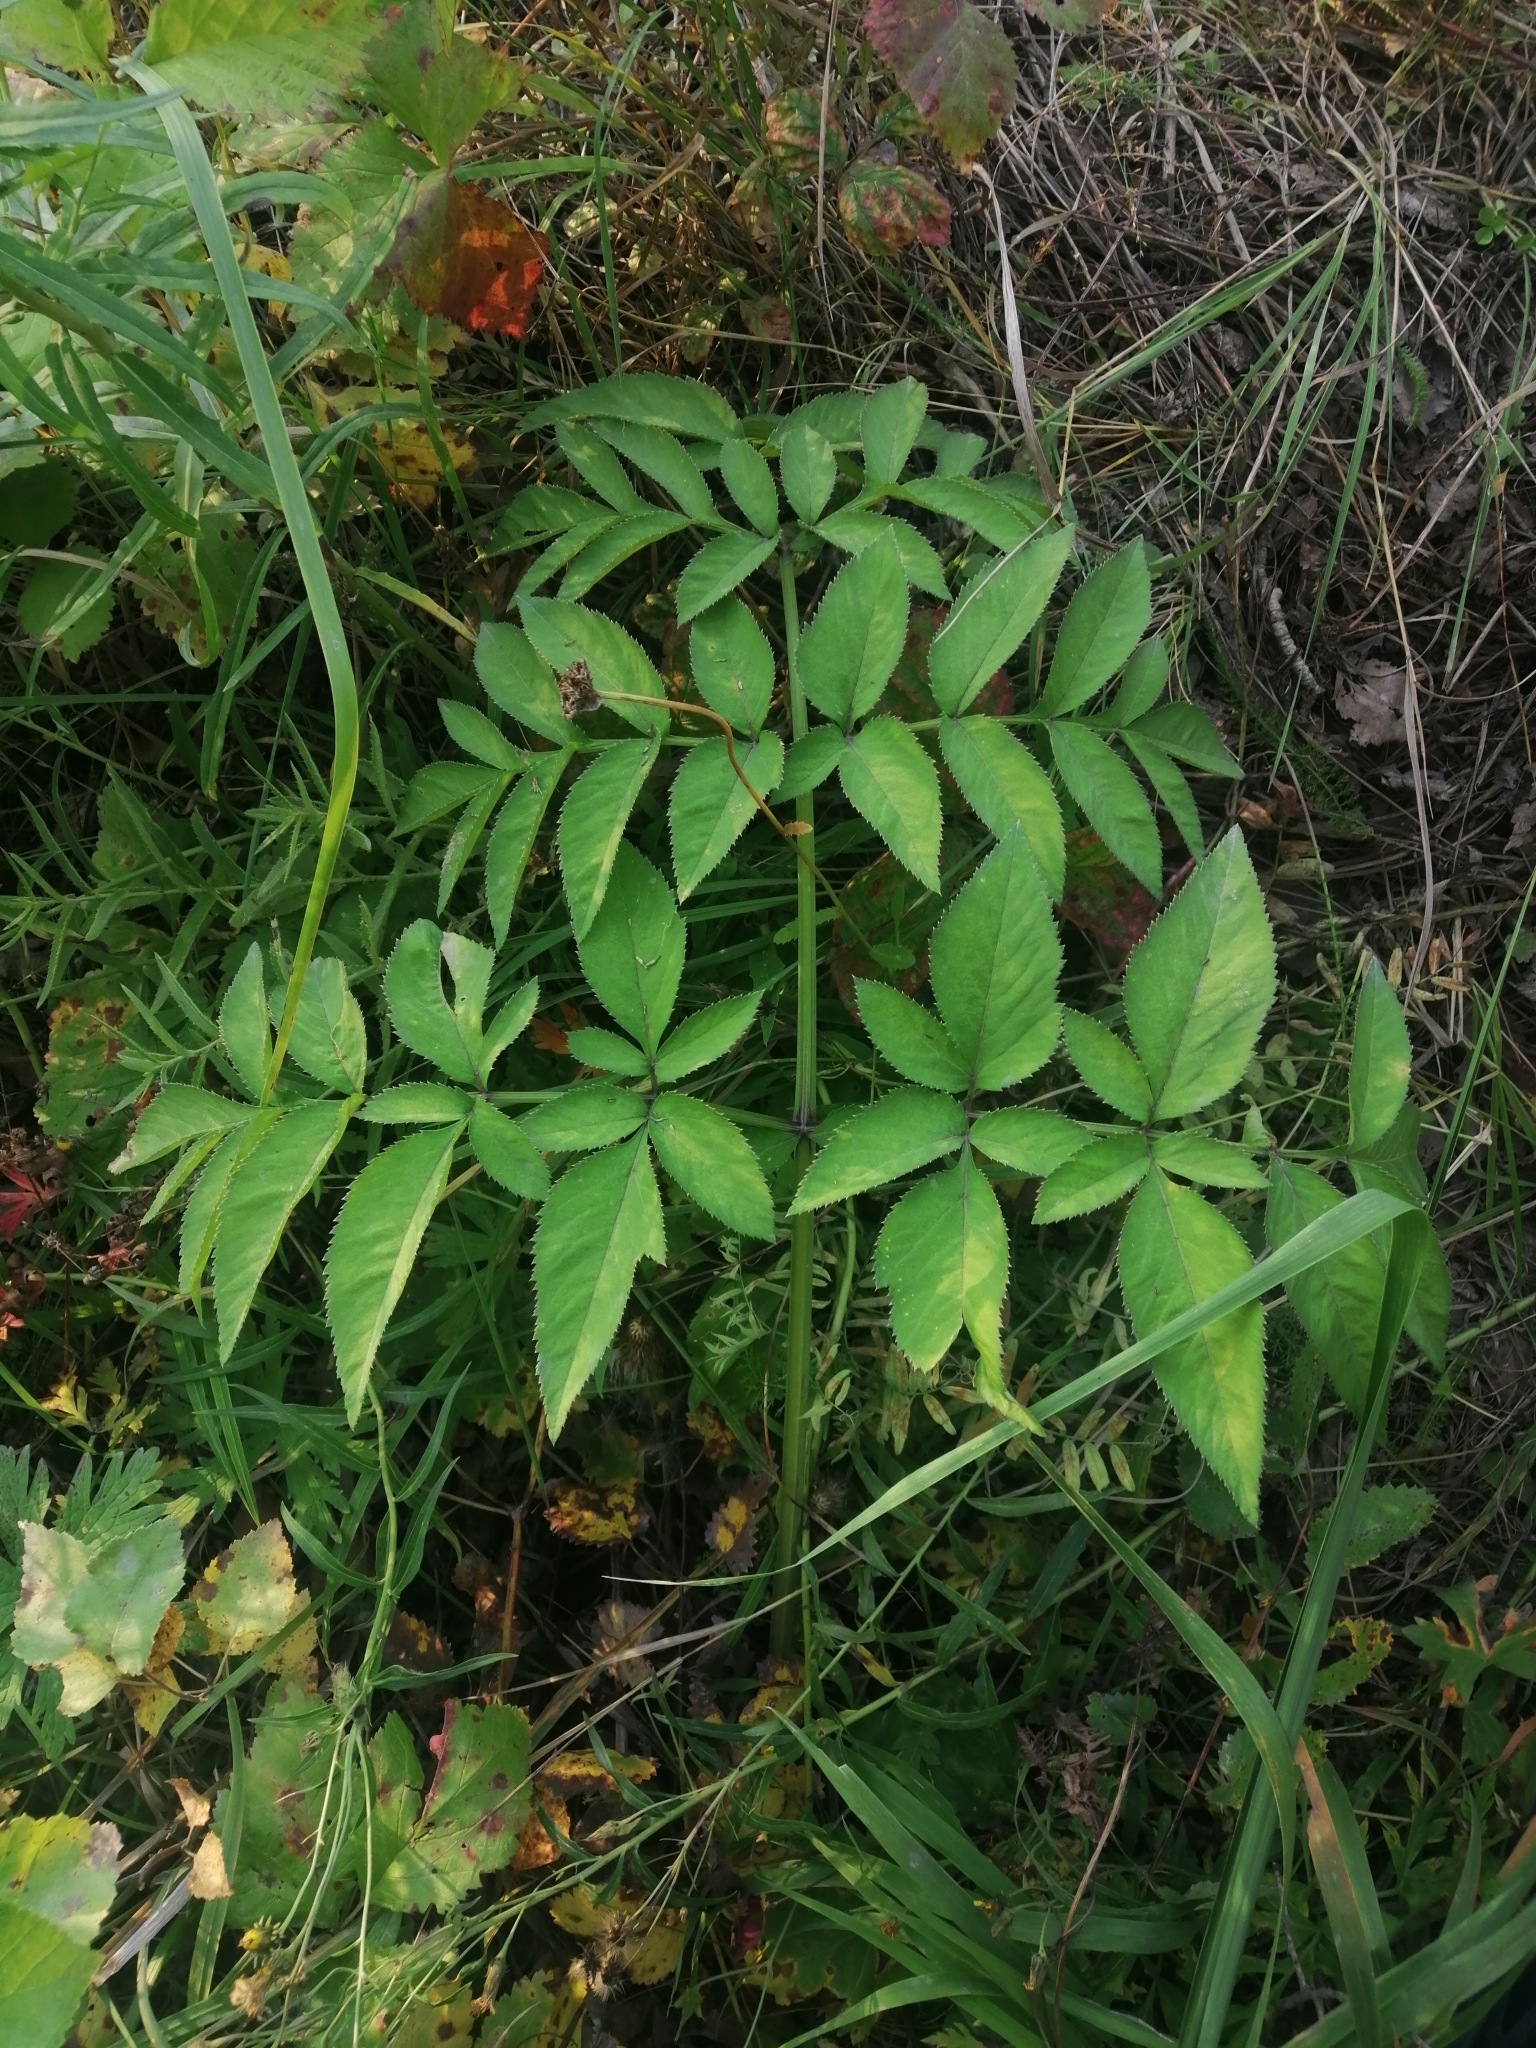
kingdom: Plantae
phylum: Tracheophyta
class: Magnoliopsida
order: Apiales
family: Apiaceae
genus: Angelica
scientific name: Angelica sylvestris
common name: Wild angelica
